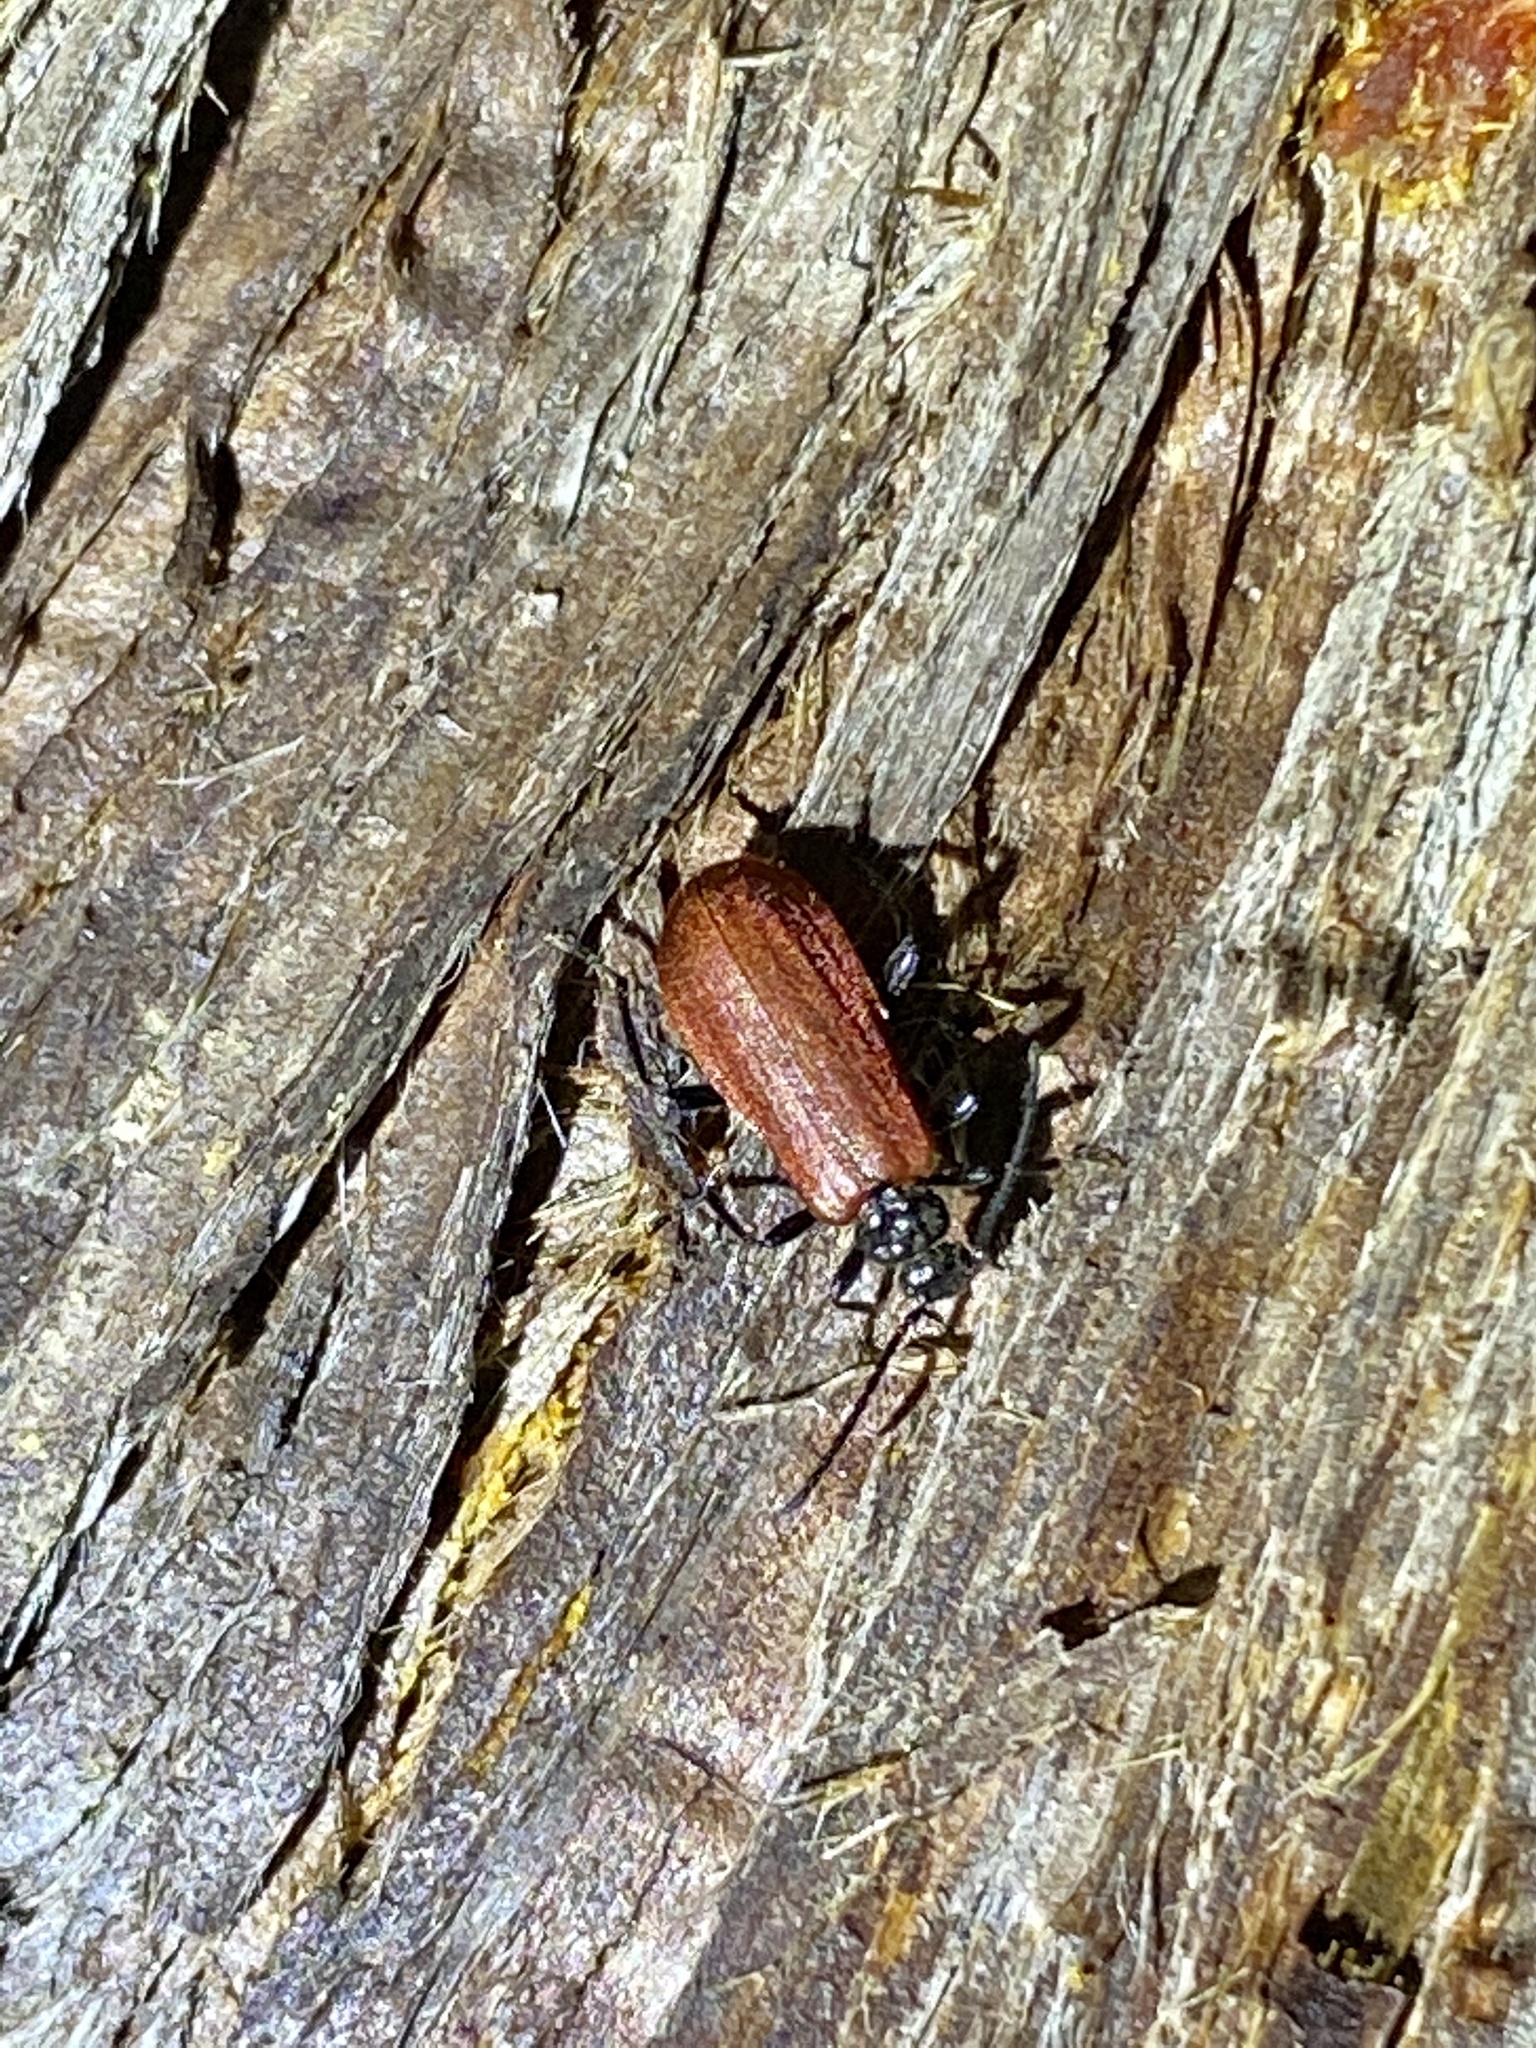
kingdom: Animalia
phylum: Arthropoda
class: Insecta
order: Coleoptera
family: Pyrochroidae
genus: Pseudopyrochroa
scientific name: Pseudopyrochroa
